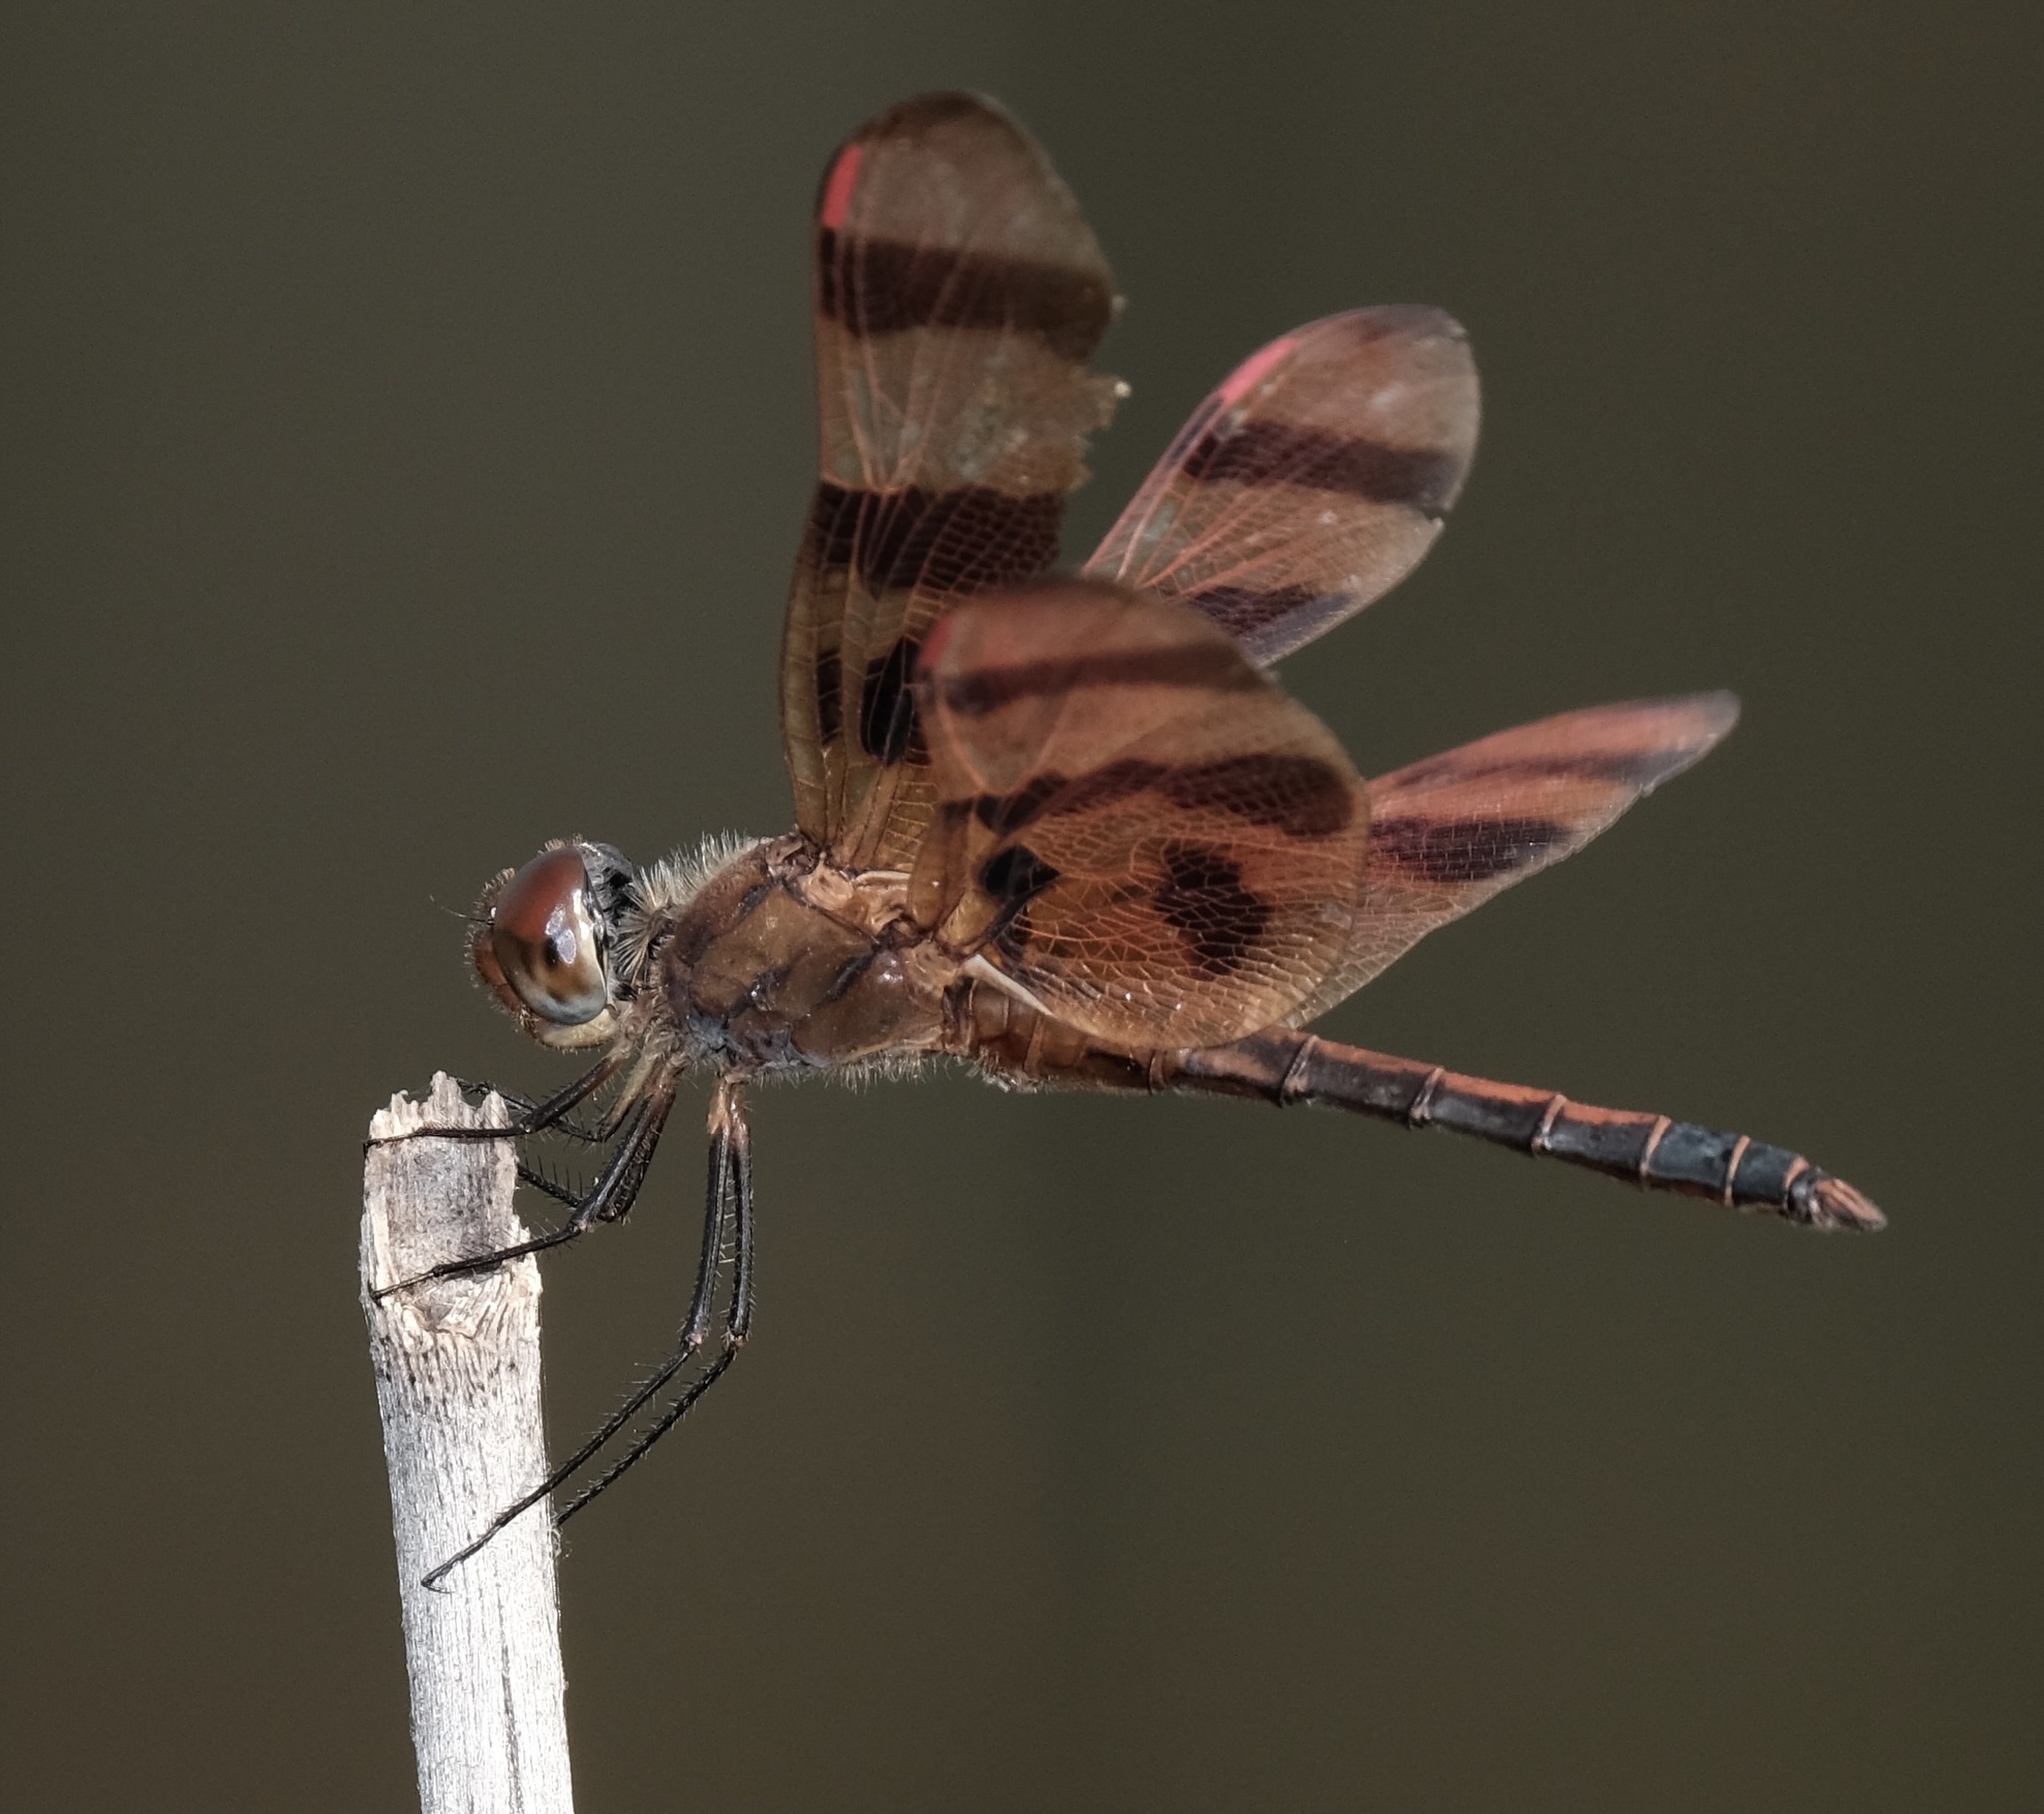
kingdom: Animalia
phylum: Arthropoda
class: Insecta
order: Odonata
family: Libellulidae
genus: Celithemis
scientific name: Celithemis eponina
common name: Halloween pennant
